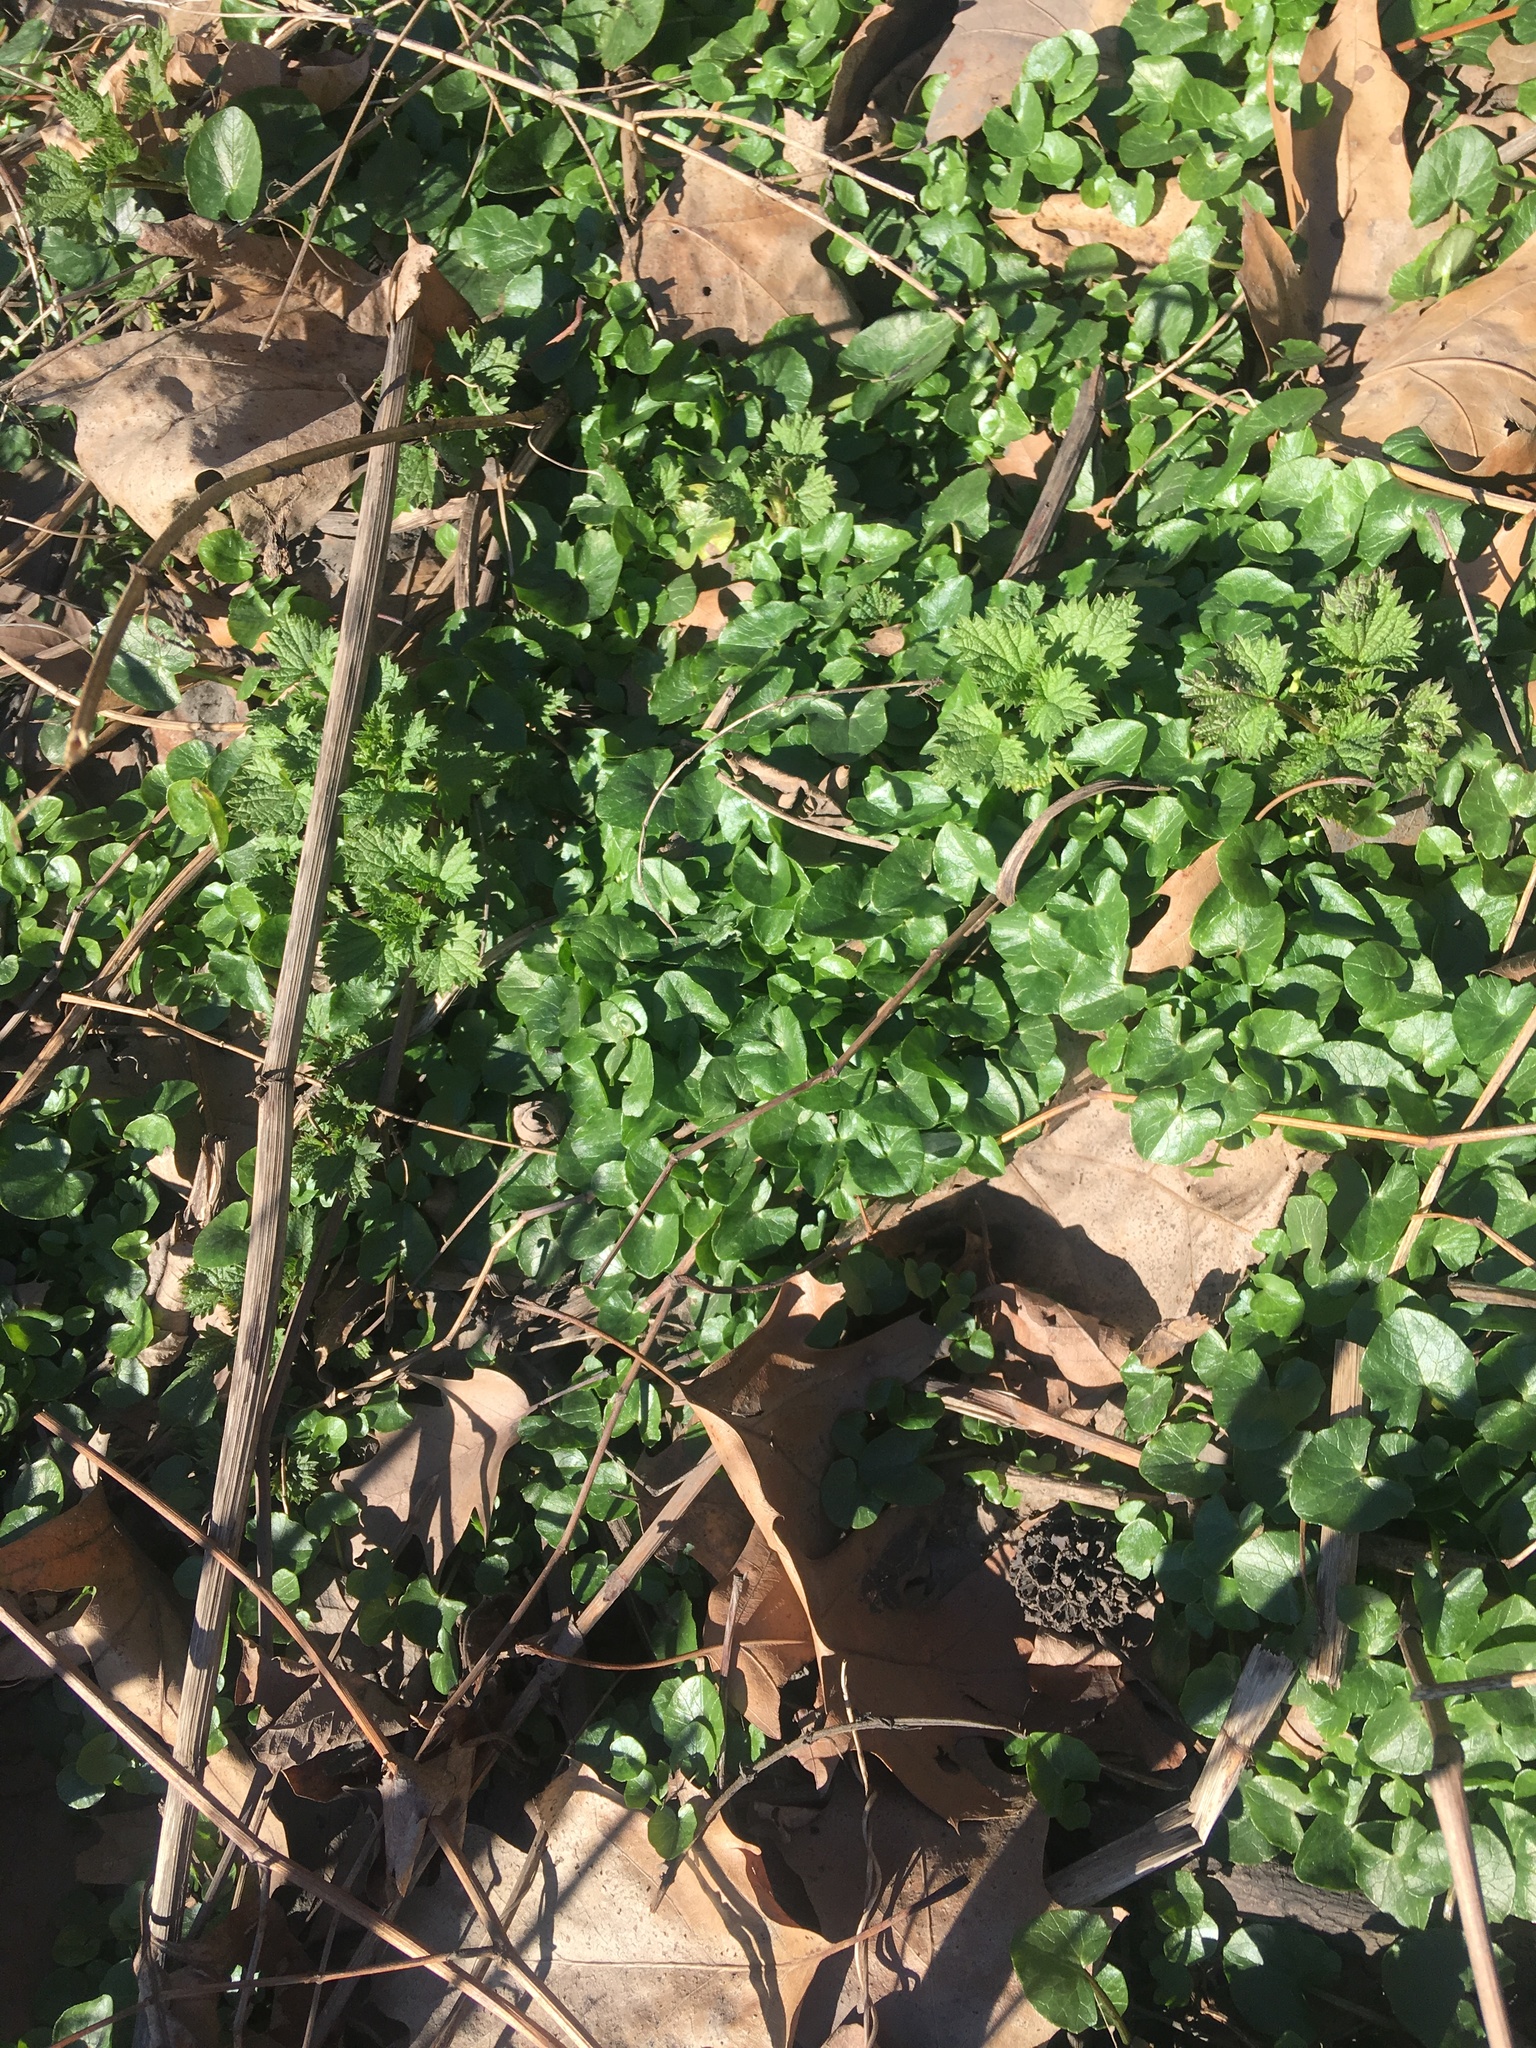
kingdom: Plantae
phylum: Tracheophyta
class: Magnoliopsida
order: Ranunculales
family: Ranunculaceae
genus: Ficaria
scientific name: Ficaria verna
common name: Lesser celandine
